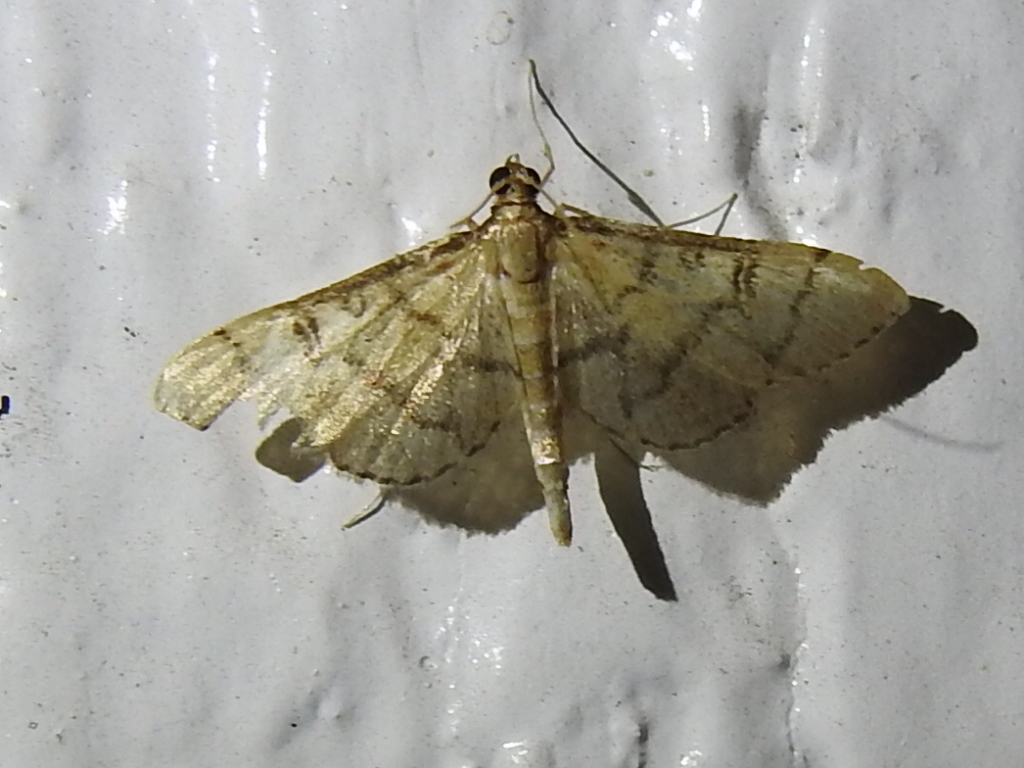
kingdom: Animalia
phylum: Arthropoda
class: Insecta
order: Lepidoptera
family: Crambidae
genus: Lamprosema
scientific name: Lamprosema Blepharomastix ranalis
